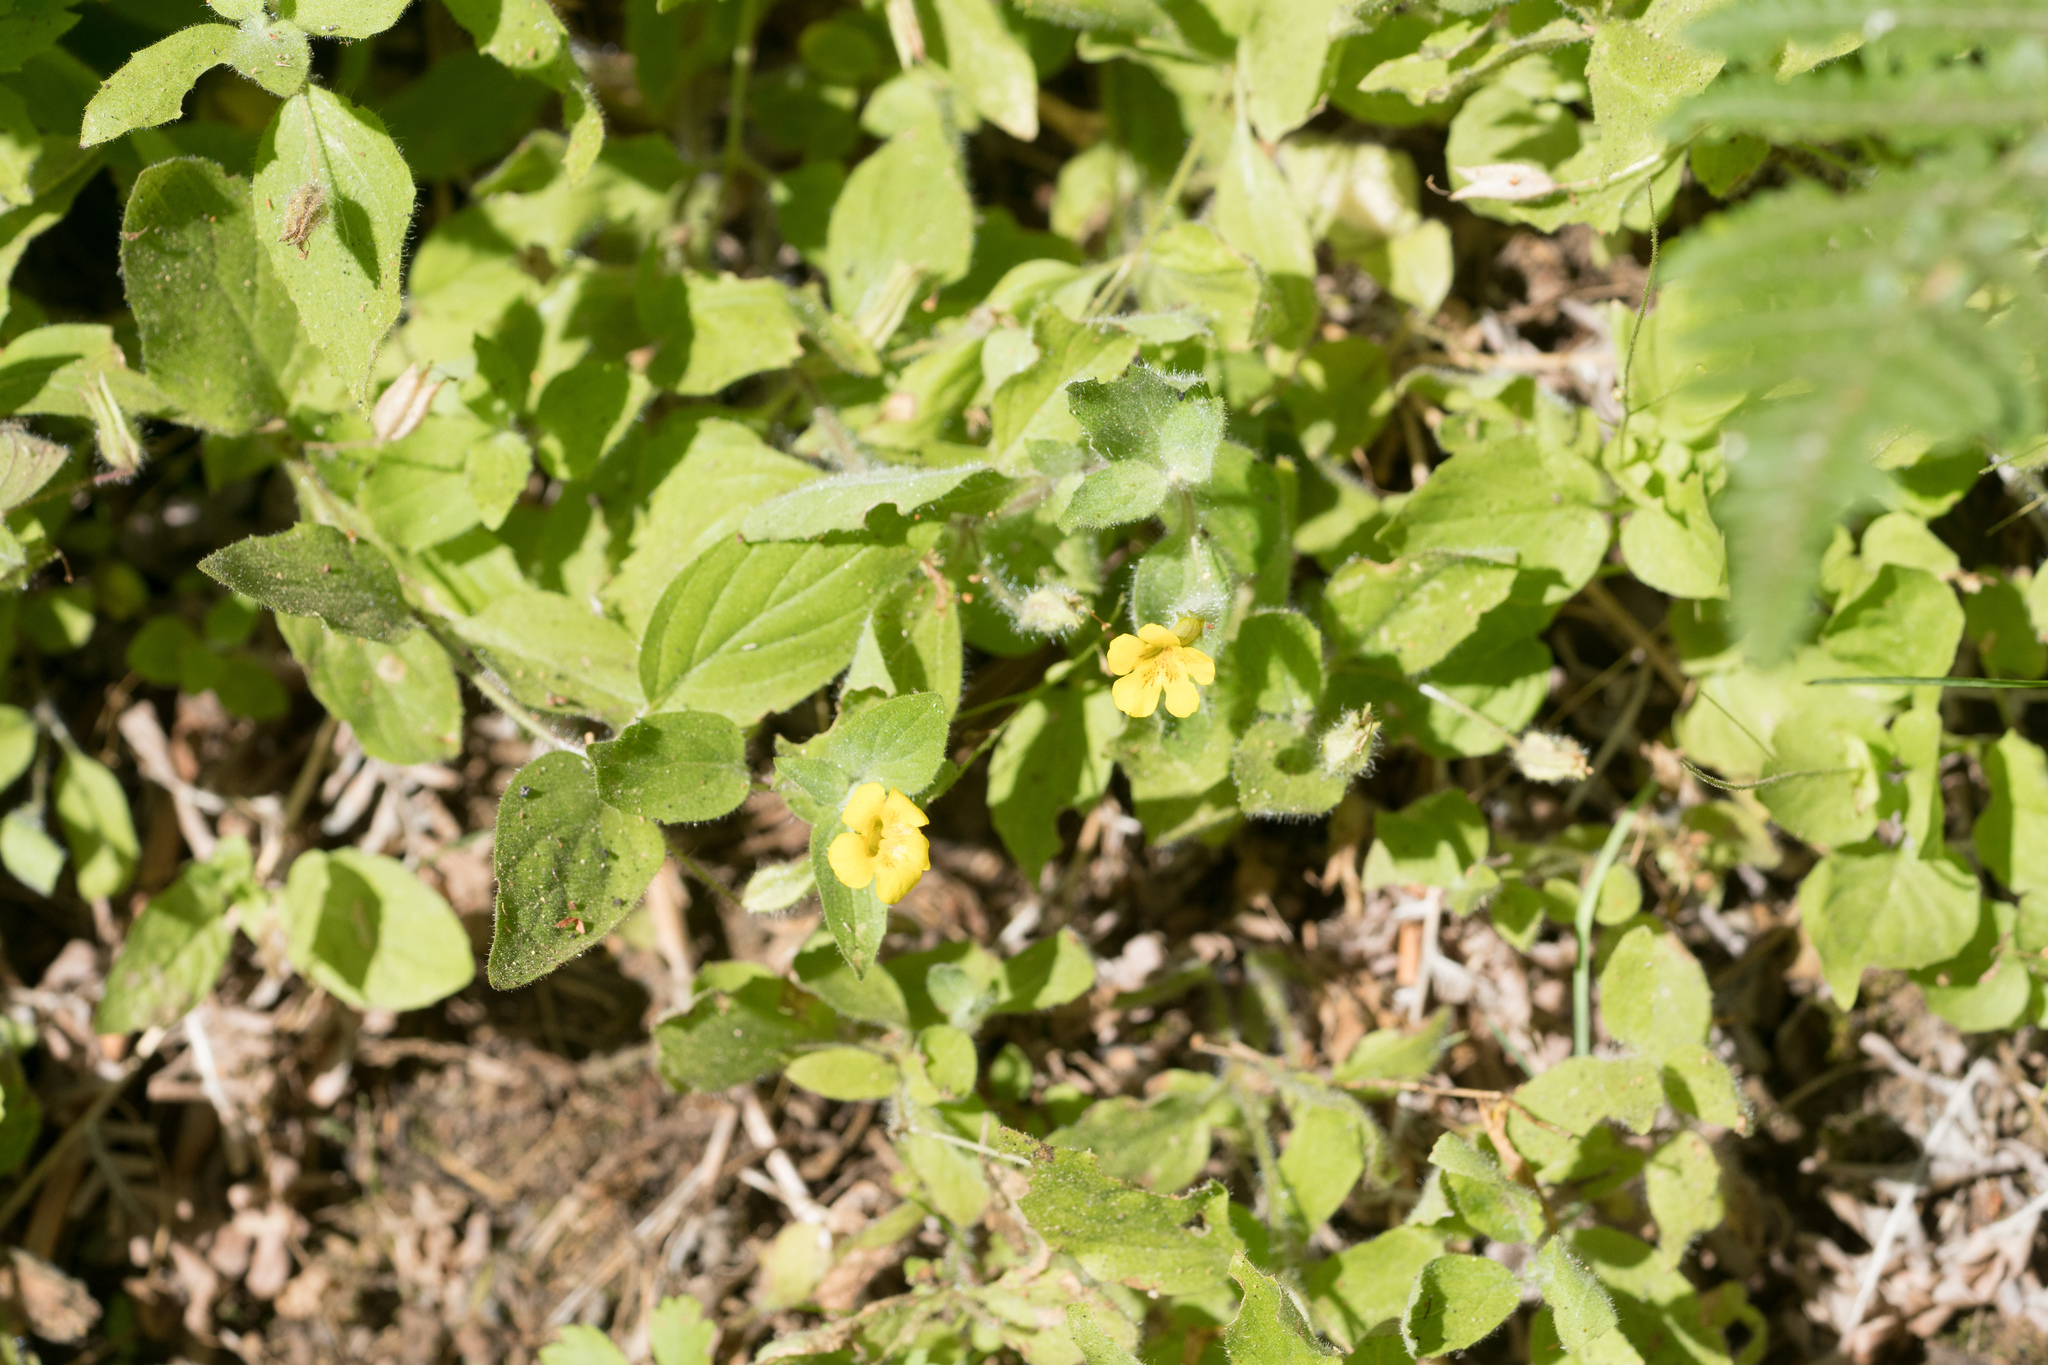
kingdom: Plantae
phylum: Tracheophyta
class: Magnoliopsida
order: Lamiales
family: Phrymaceae
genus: Erythranthe
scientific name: Erythranthe moschata
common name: Muskflower
